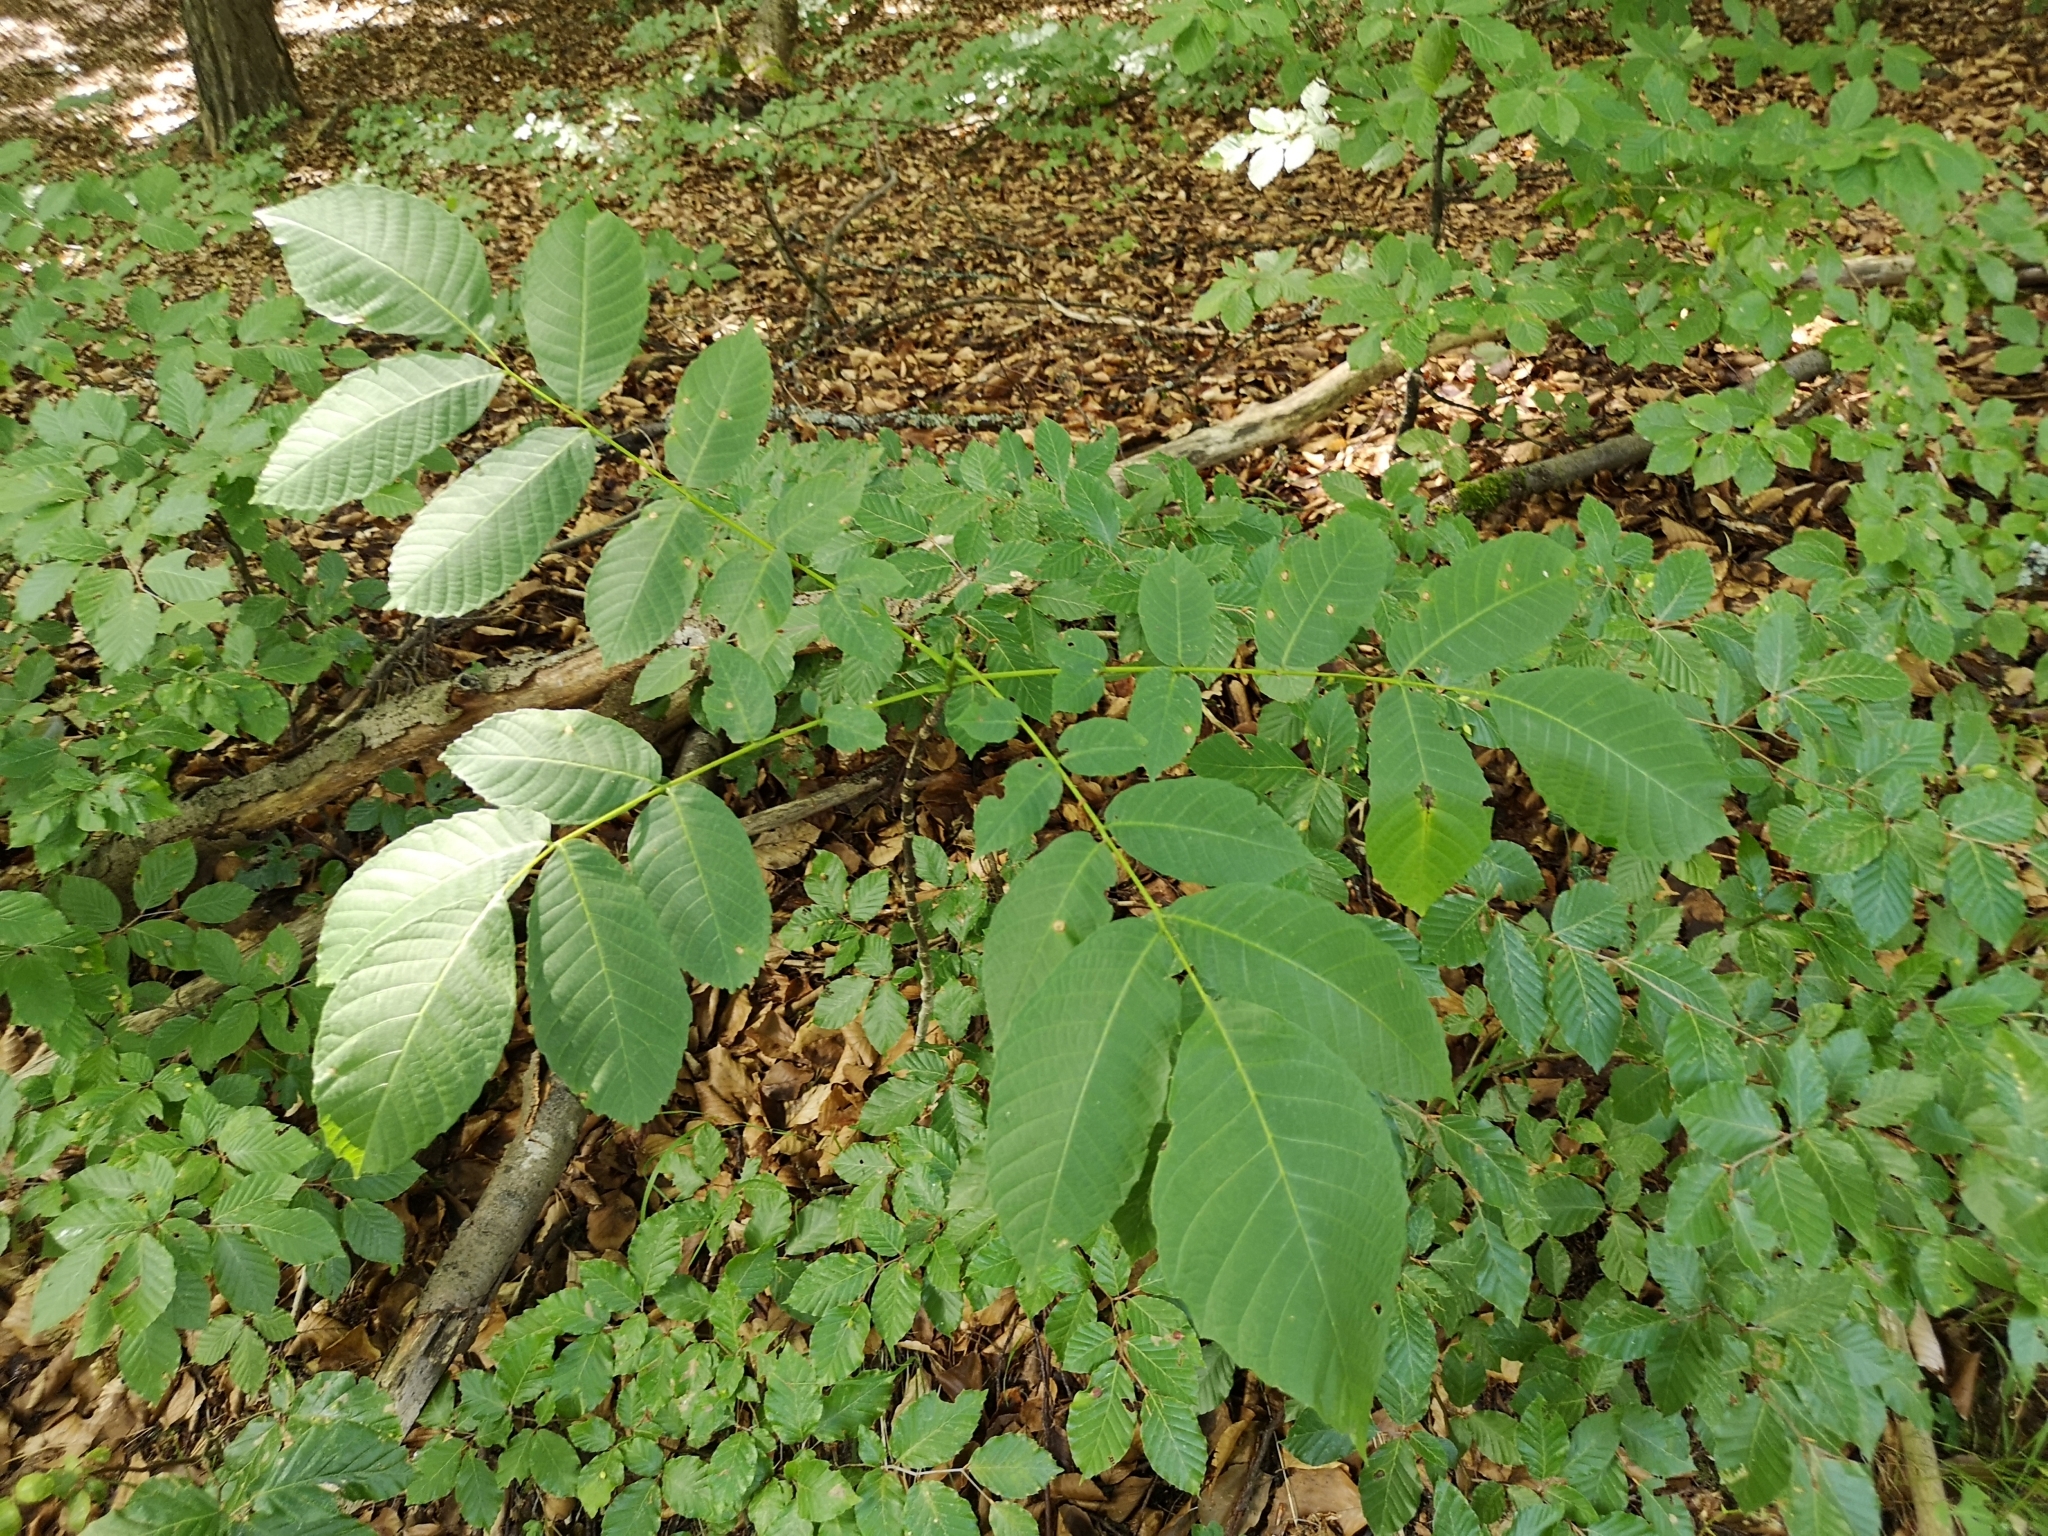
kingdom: Plantae
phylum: Tracheophyta
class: Magnoliopsida
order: Fagales
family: Juglandaceae
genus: Juglans
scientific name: Juglans regia
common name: Walnut
